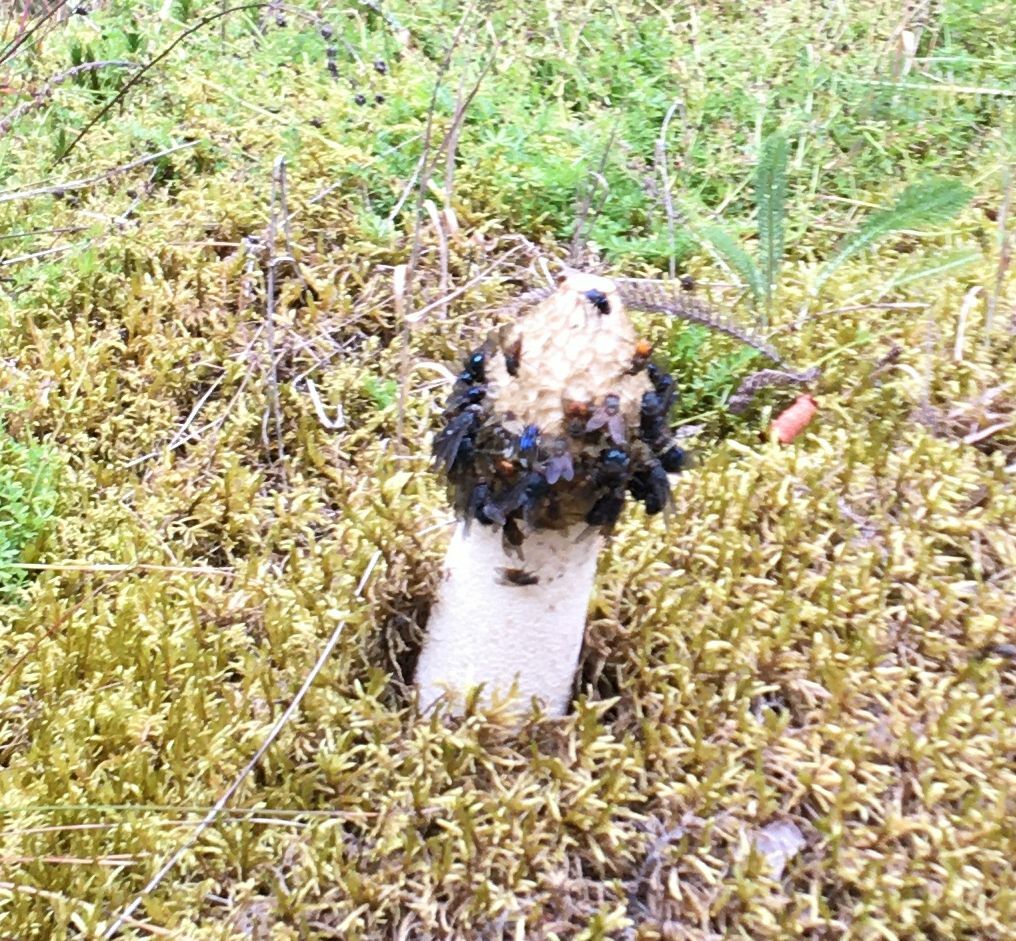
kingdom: Fungi
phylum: Basidiomycota
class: Agaricomycetes
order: Phallales
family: Phallaceae
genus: Phallus
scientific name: Phallus impudicus
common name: Common stinkhorn
